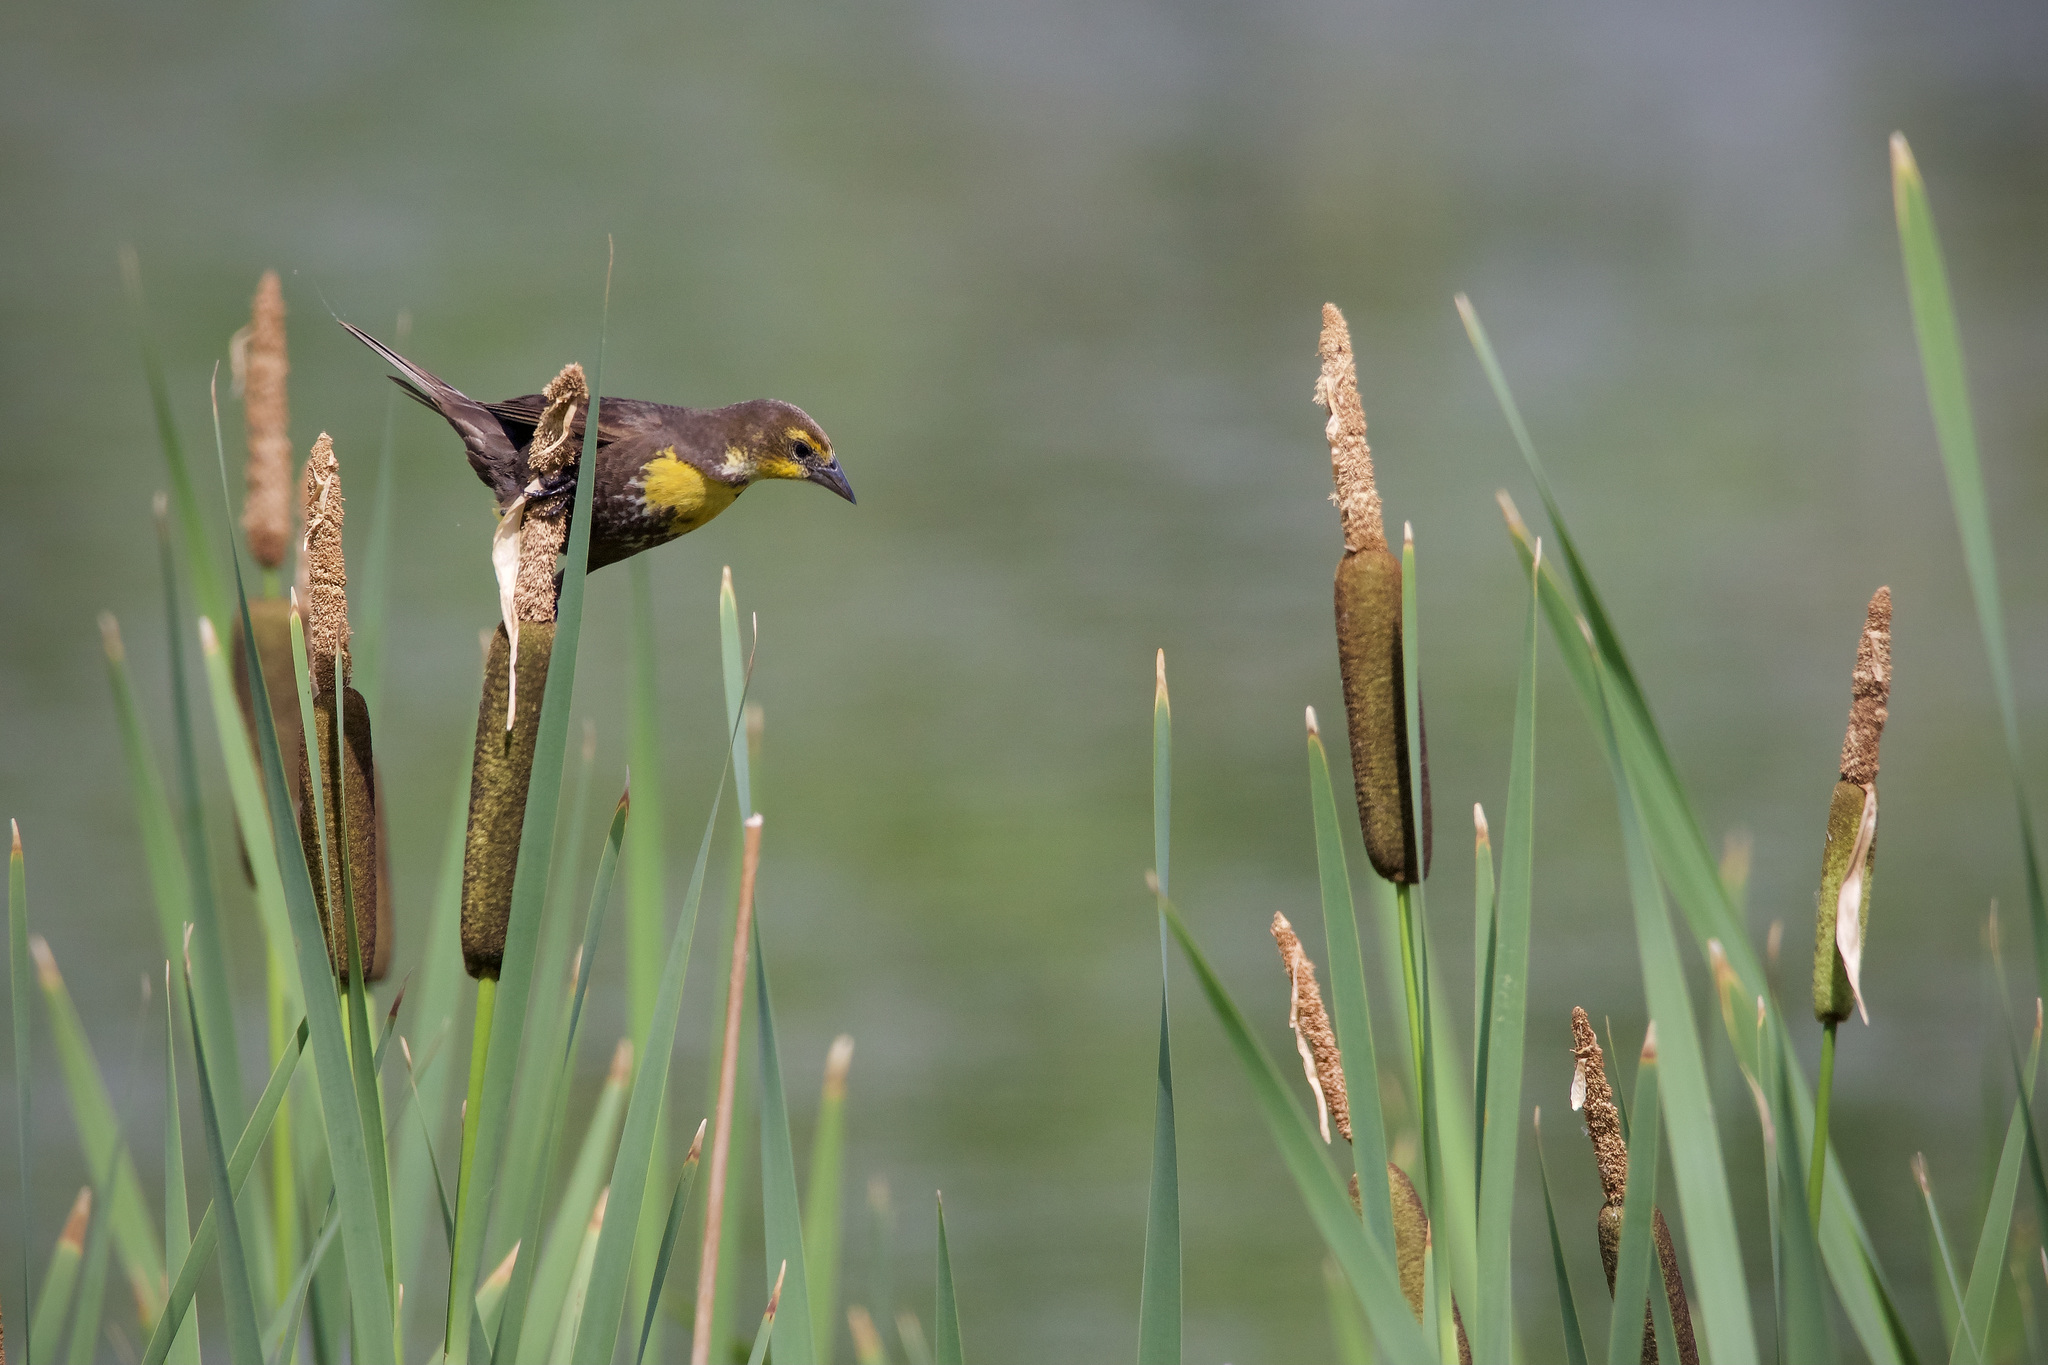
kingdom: Animalia
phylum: Chordata
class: Aves
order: Passeriformes
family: Icteridae
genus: Xanthocephalus
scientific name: Xanthocephalus xanthocephalus
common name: Yellow-headed blackbird
